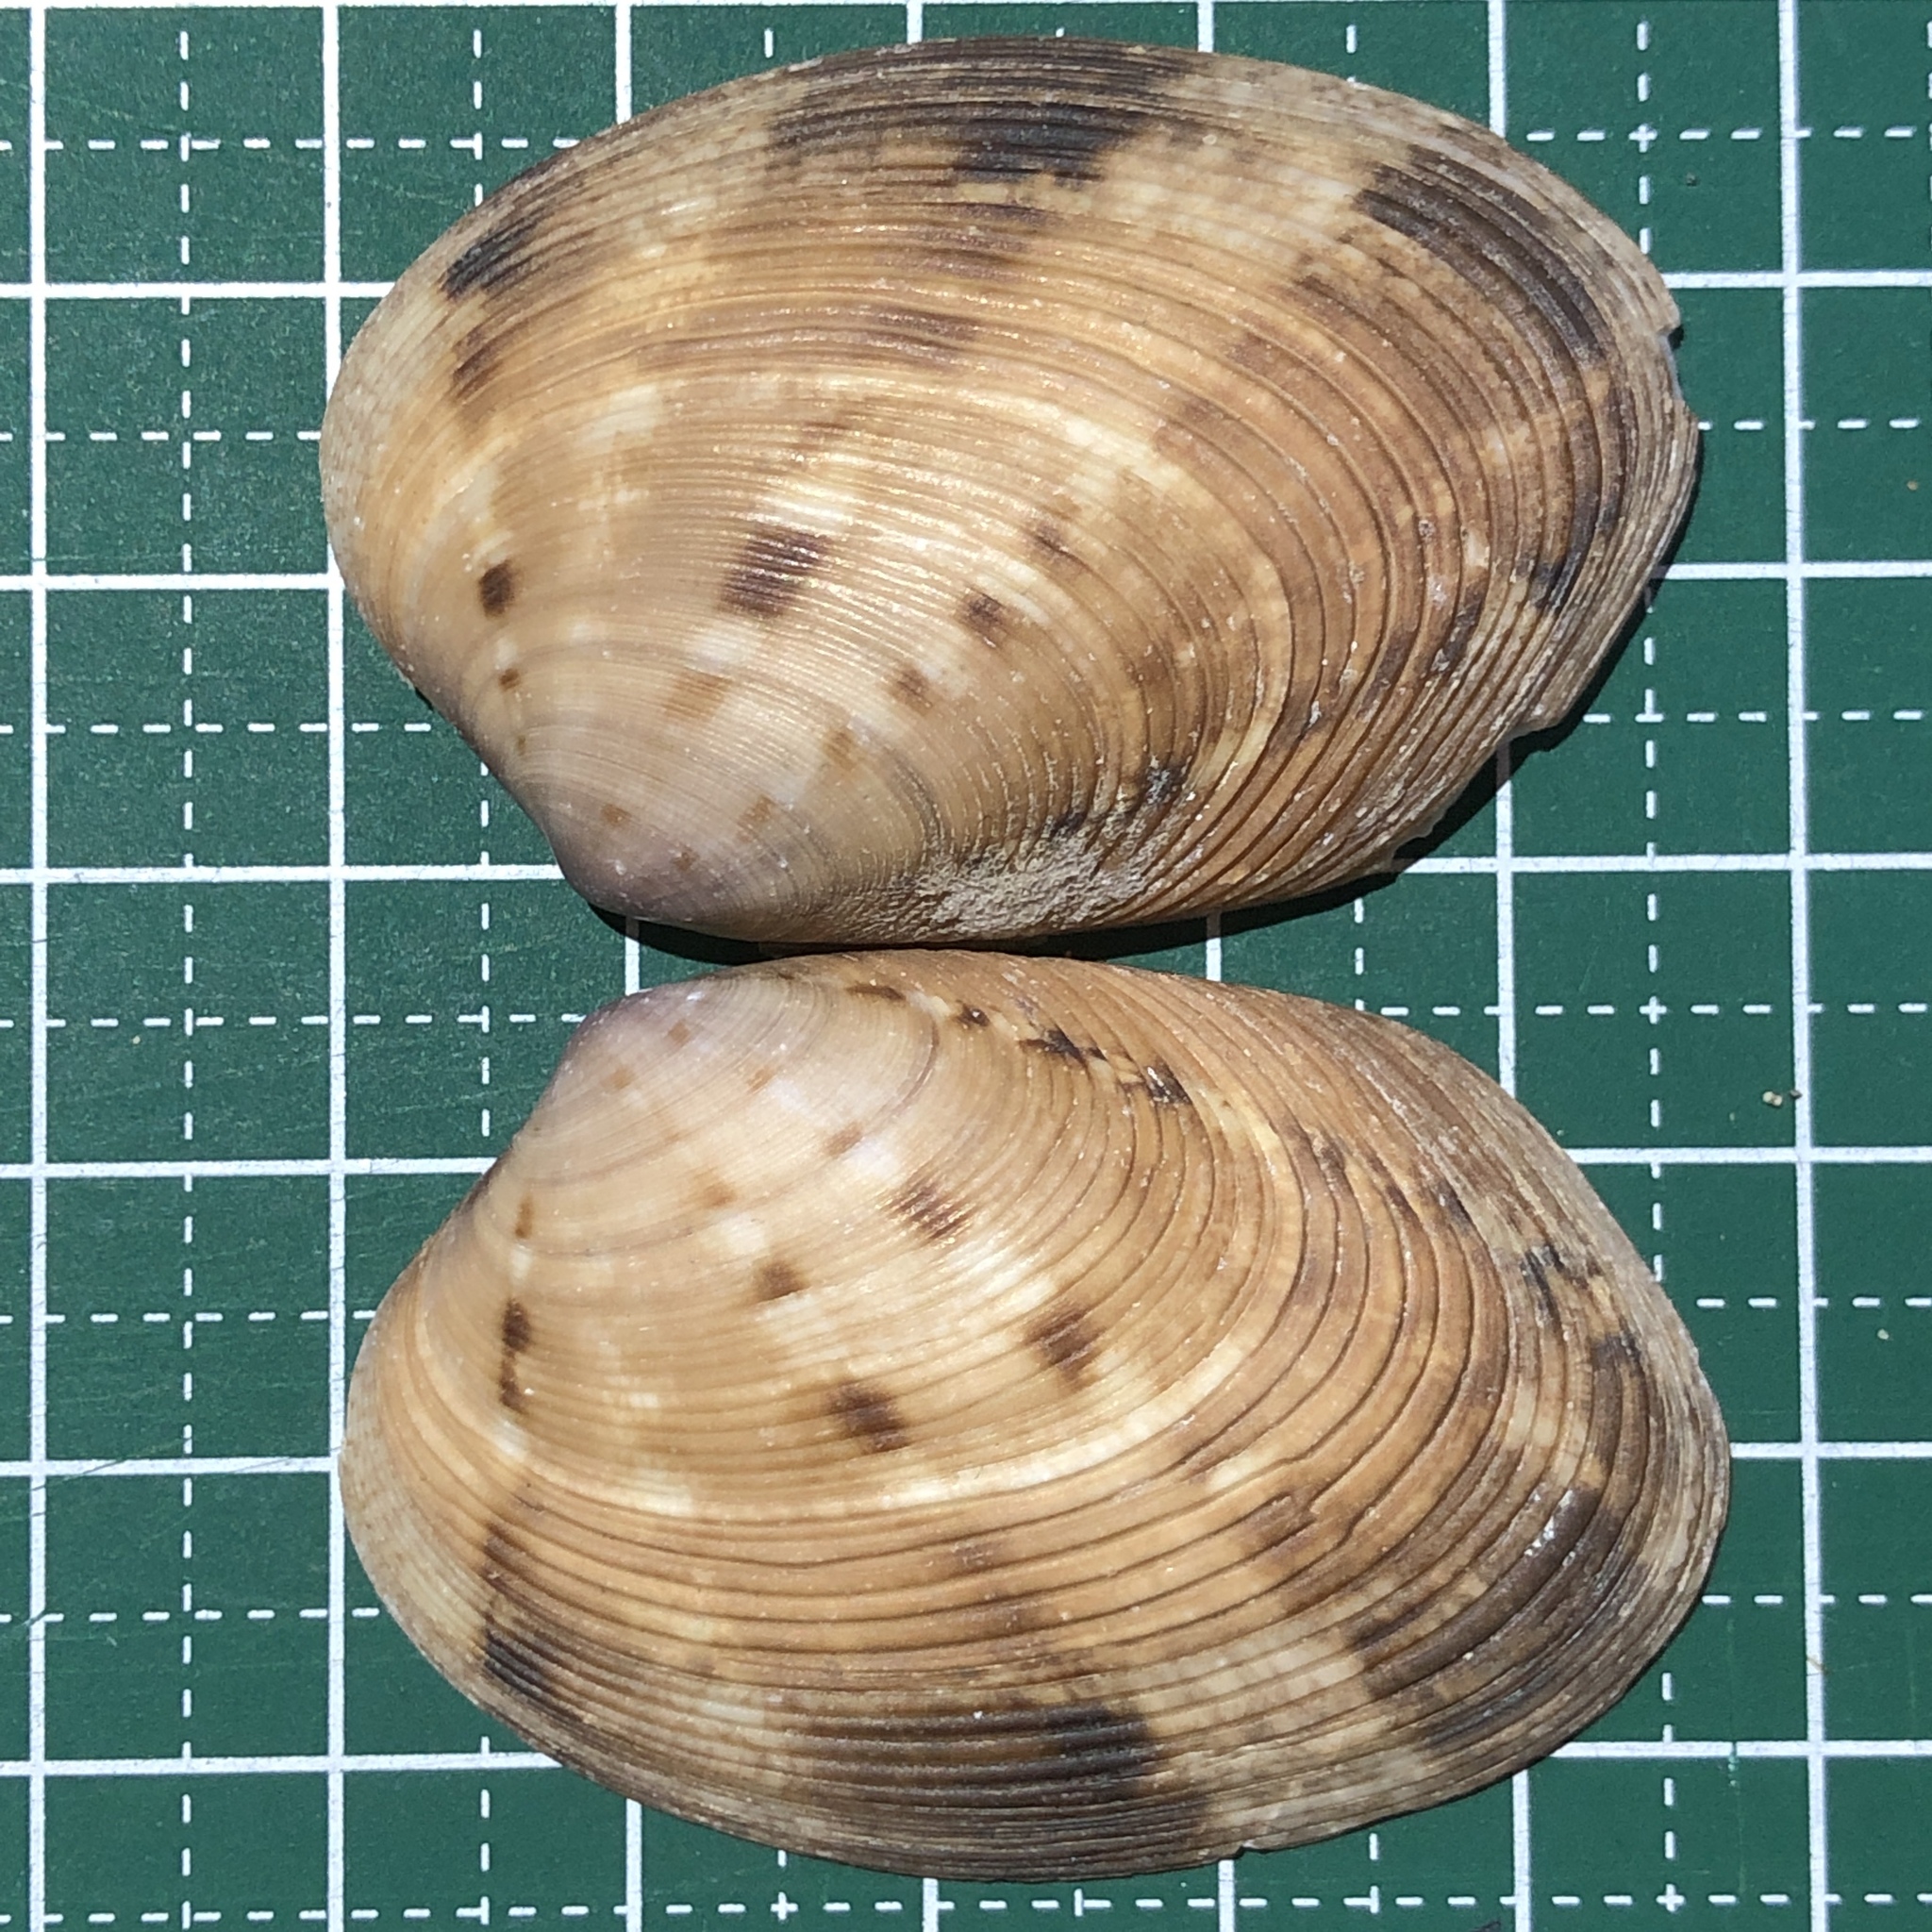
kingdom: Animalia
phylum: Mollusca
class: Bivalvia
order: Venerida
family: Veneridae
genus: Tapes
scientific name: Tapes platyptycha
